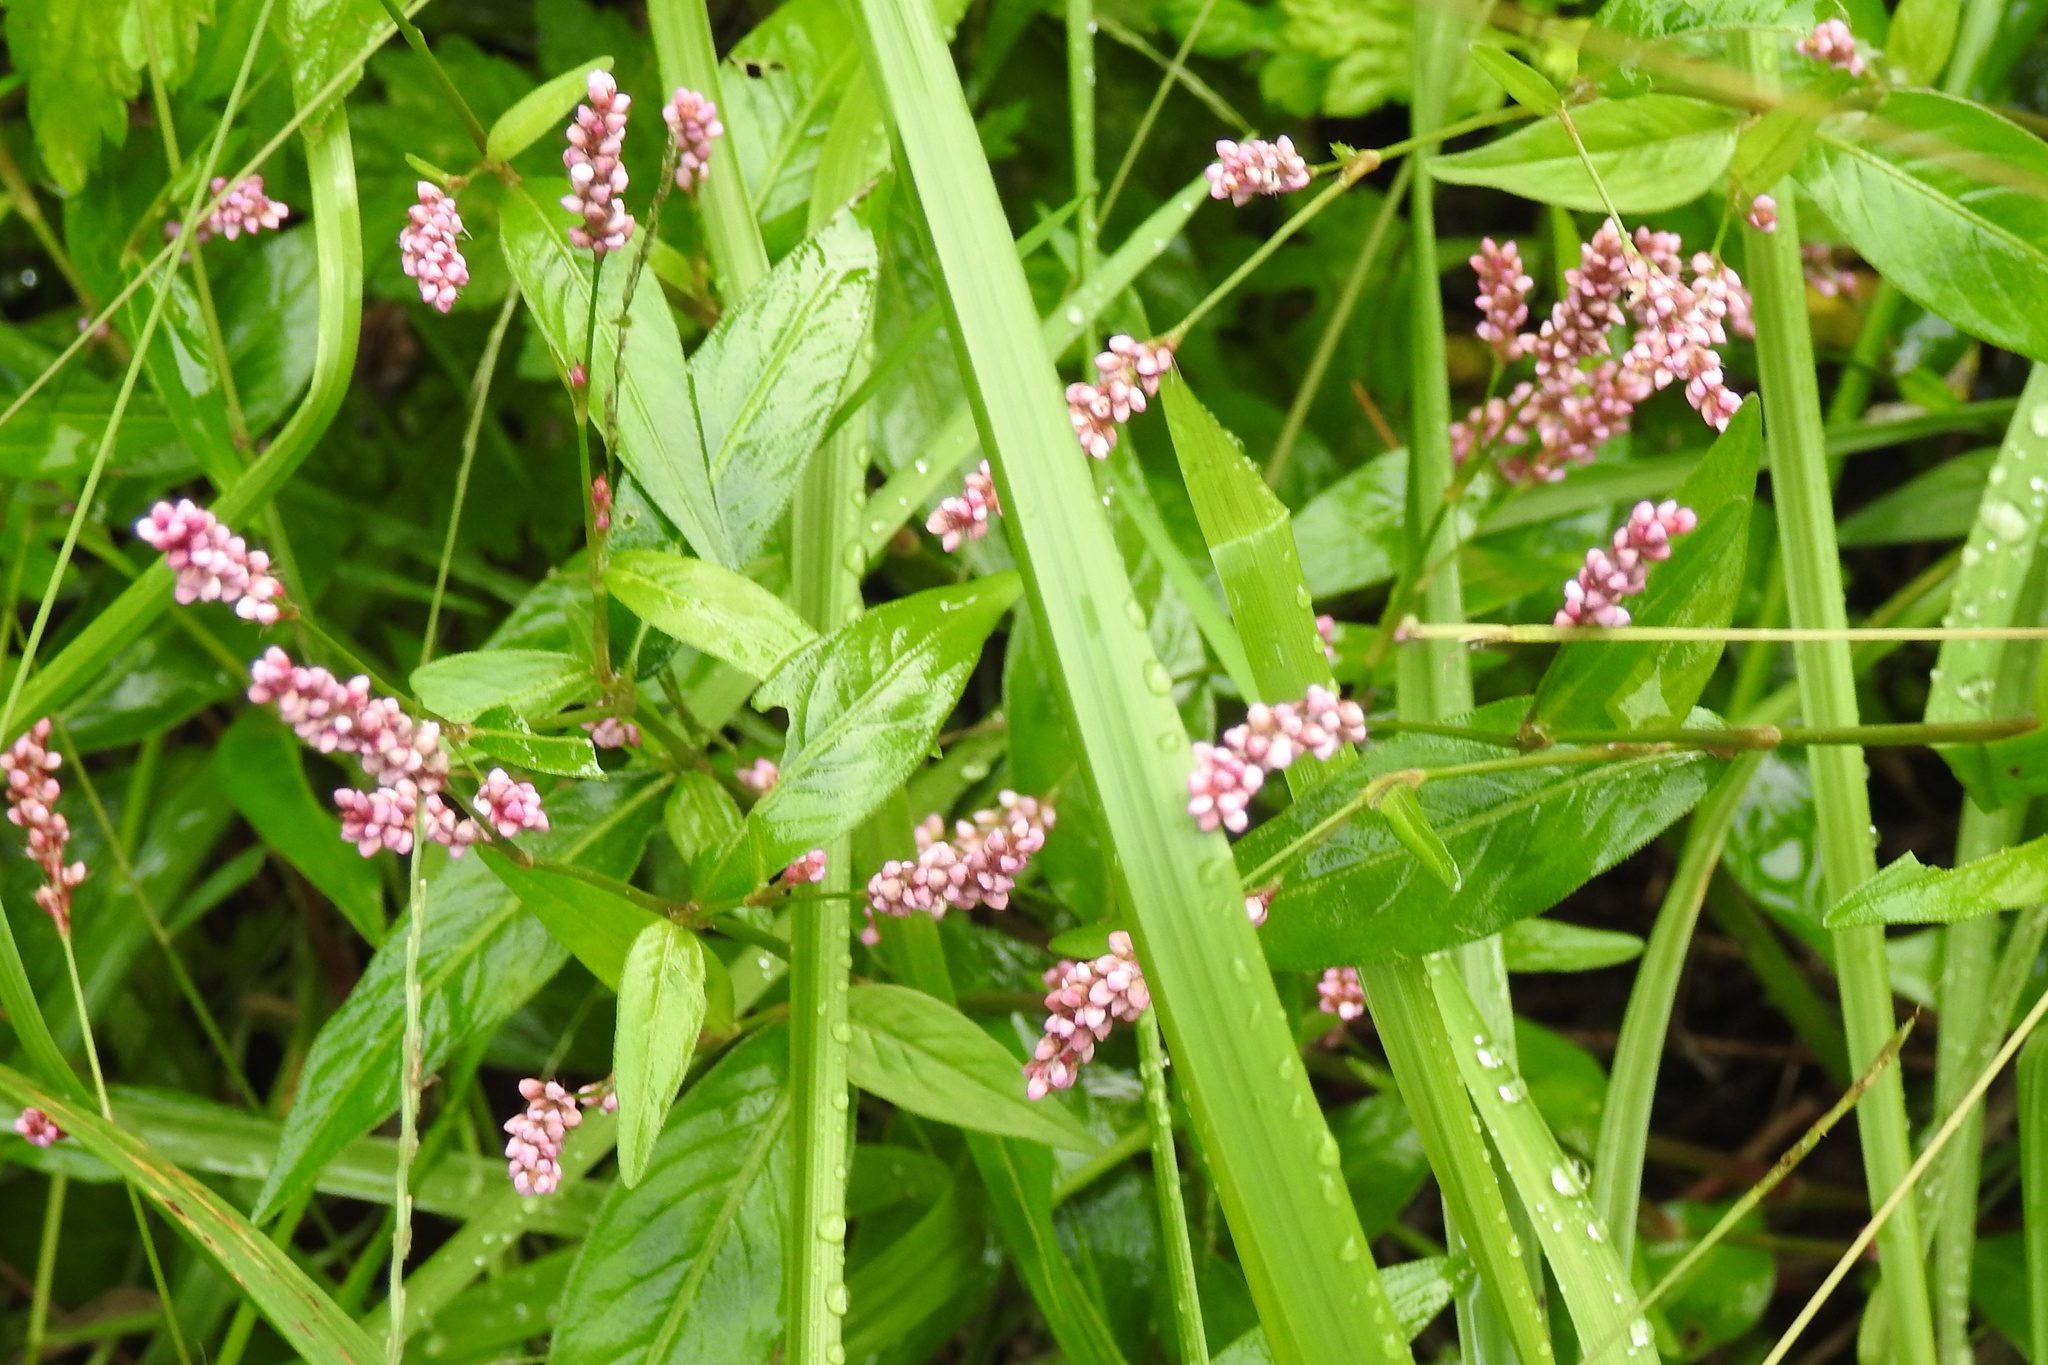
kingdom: Plantae
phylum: Tracheophyta
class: Magnoliopsida
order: Caryophyllales
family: Polygonaceae
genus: Persicaria
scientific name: Persicaria longiseta
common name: Bristly lady's-thumb
